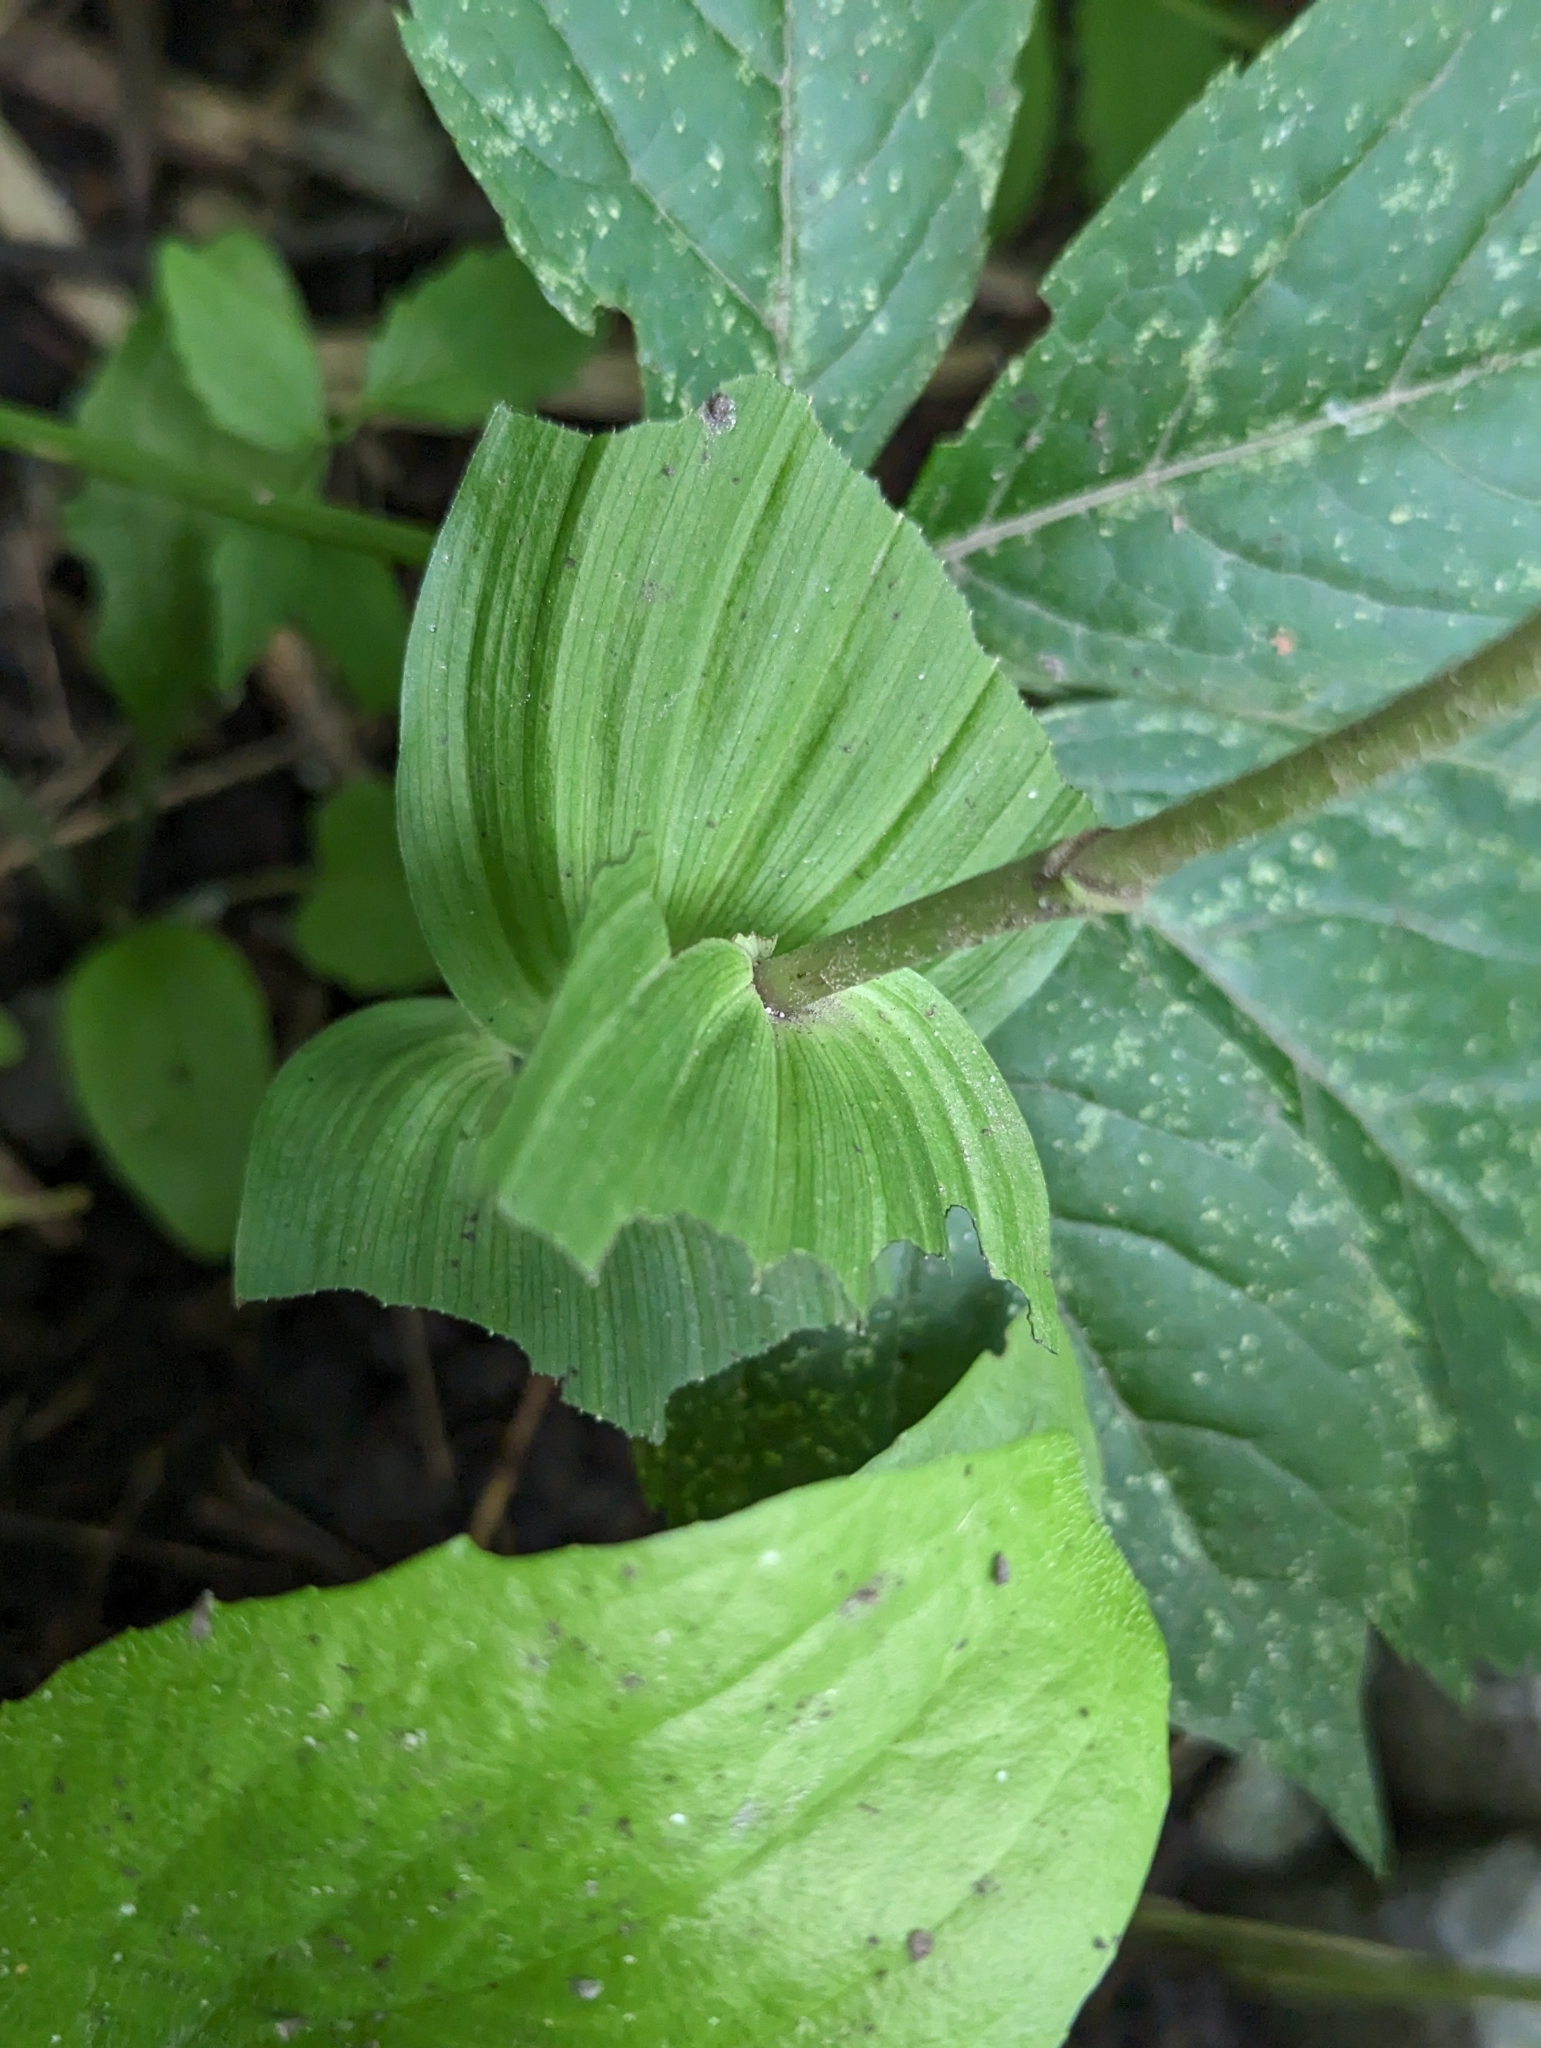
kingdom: Plantae
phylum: Tracheophyta
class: Liliopsida
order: Asparagales
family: Orchidaceae
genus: Epipactis
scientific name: Epipactis helleborine
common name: Broad-leaved helleborine
